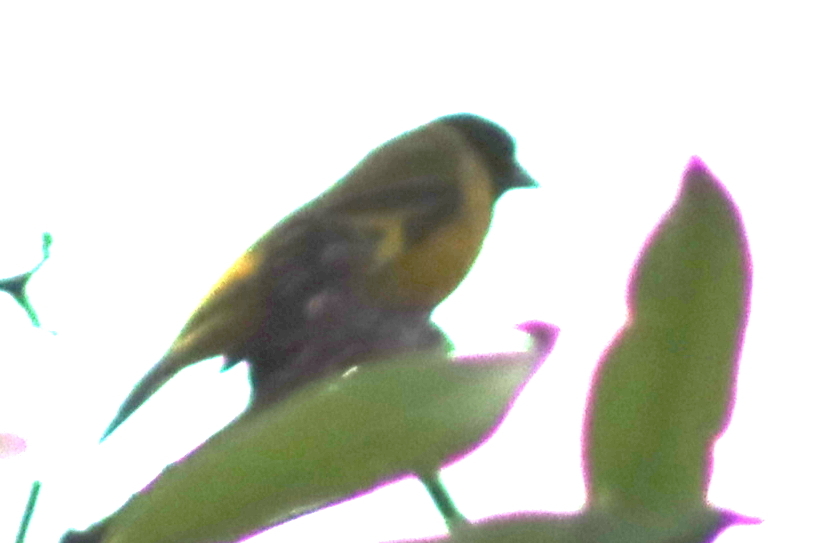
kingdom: Animalia
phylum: Chordata
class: Aves
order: Passeriformes
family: Fringillidae
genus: Spinus
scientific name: Spinus magellanicus
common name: Hooded siskin
